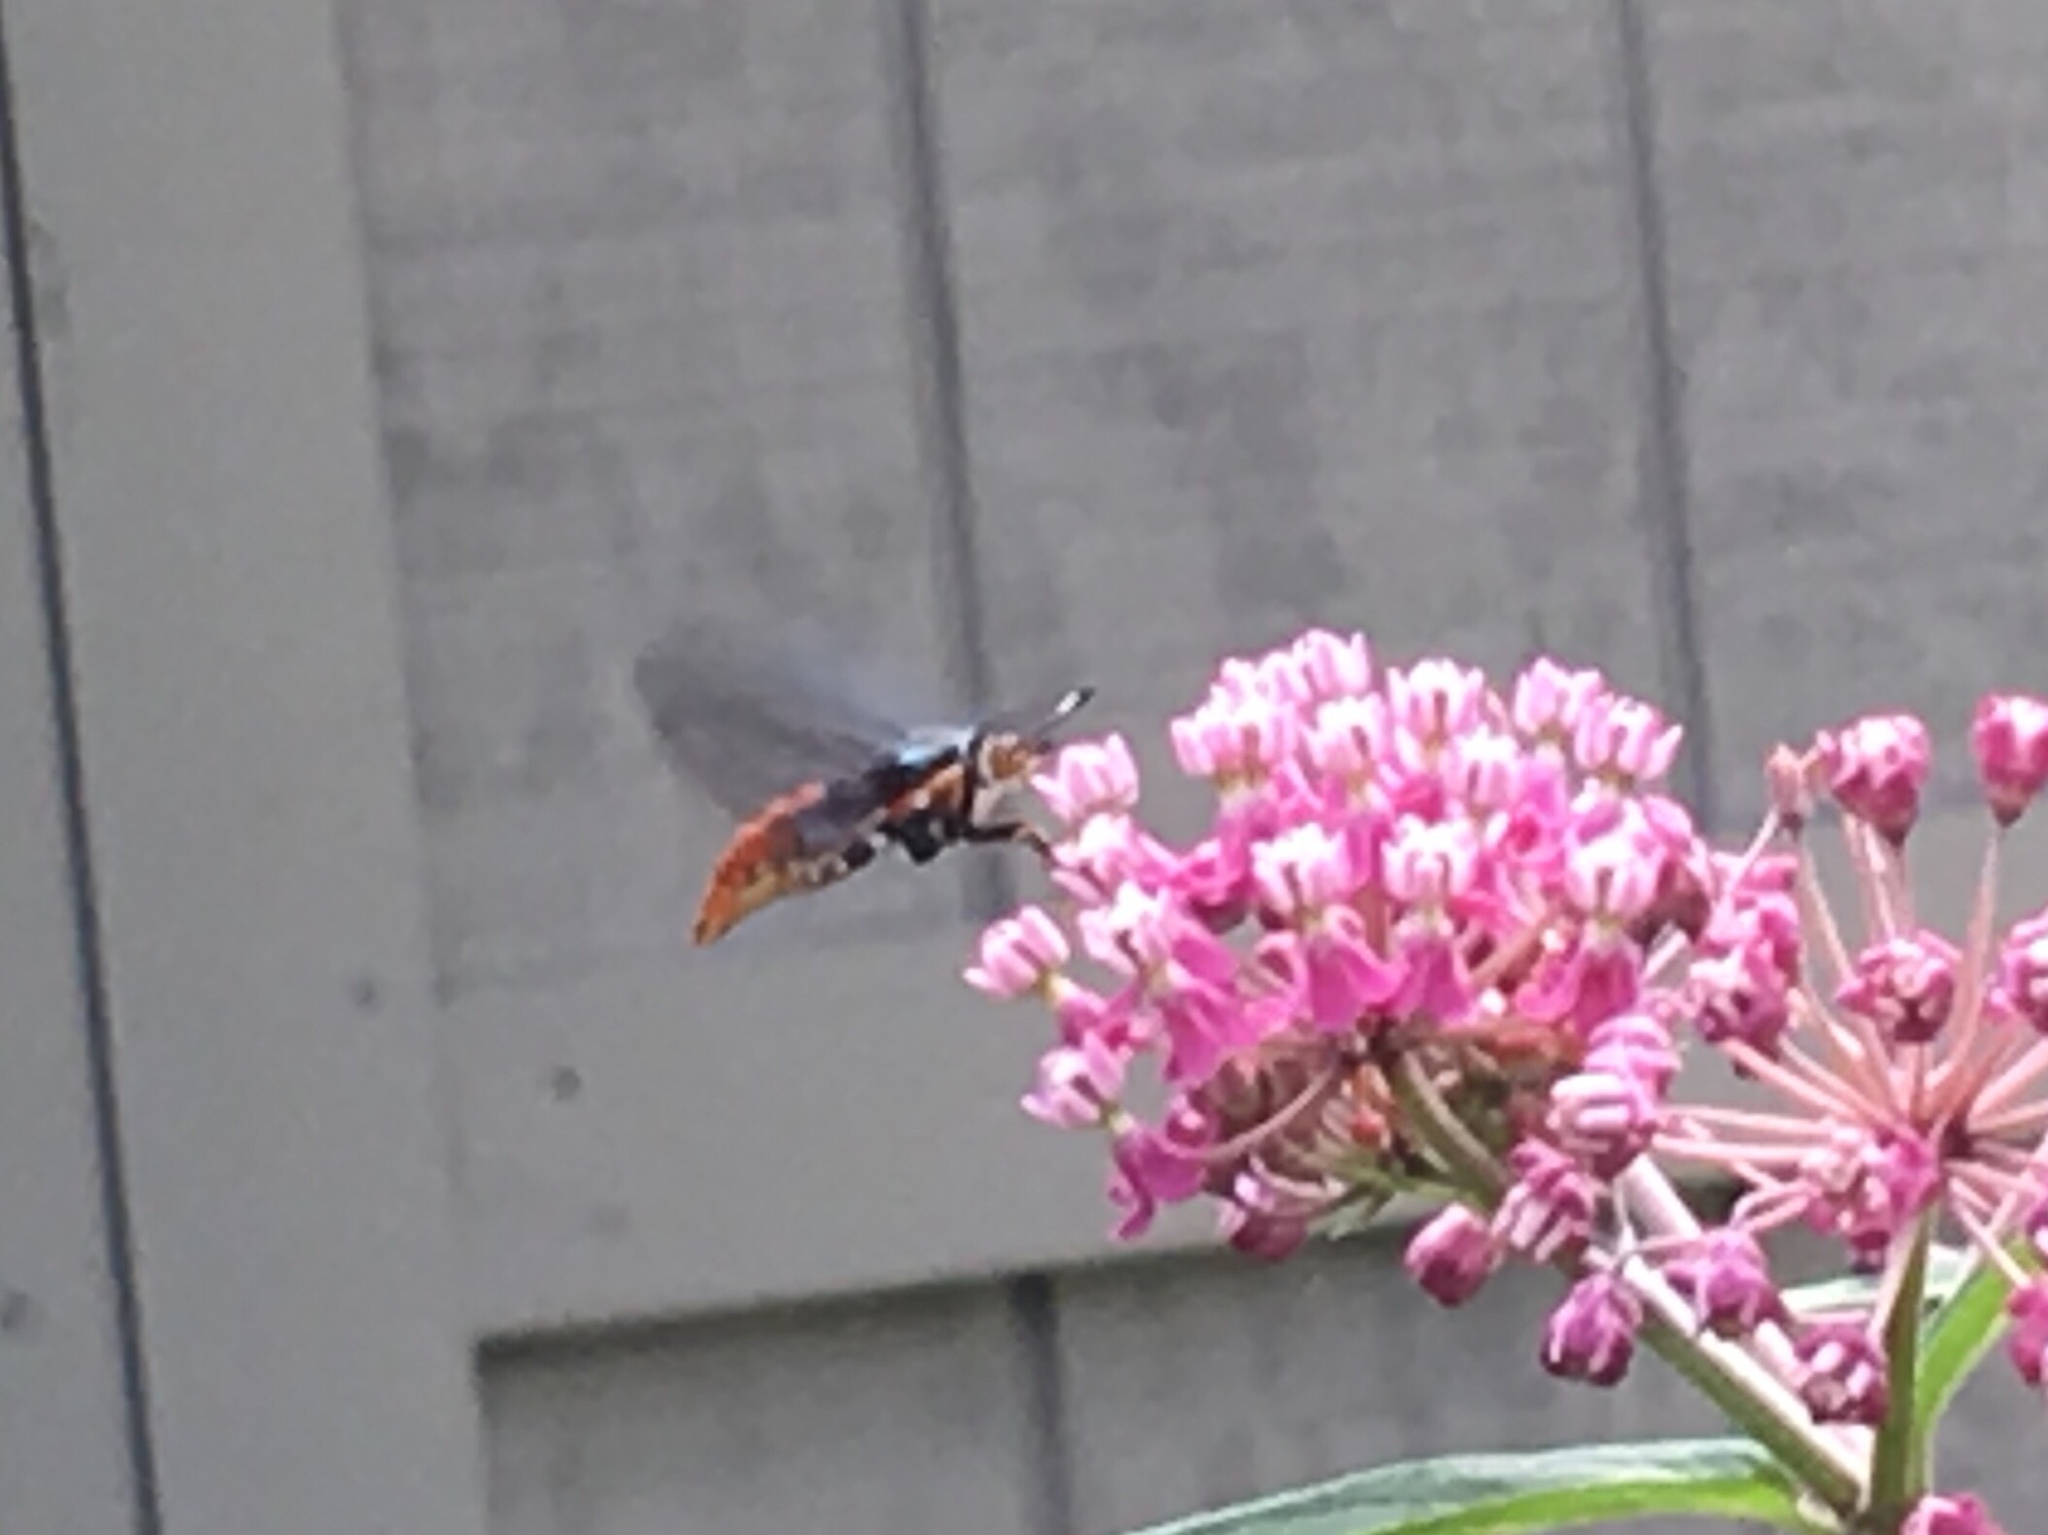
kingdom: Animalia
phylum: Arthropoda
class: Insecta
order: Lepidoptera
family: Sesiidae
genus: Eichlinia
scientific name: Eichlinia cucurbitae
